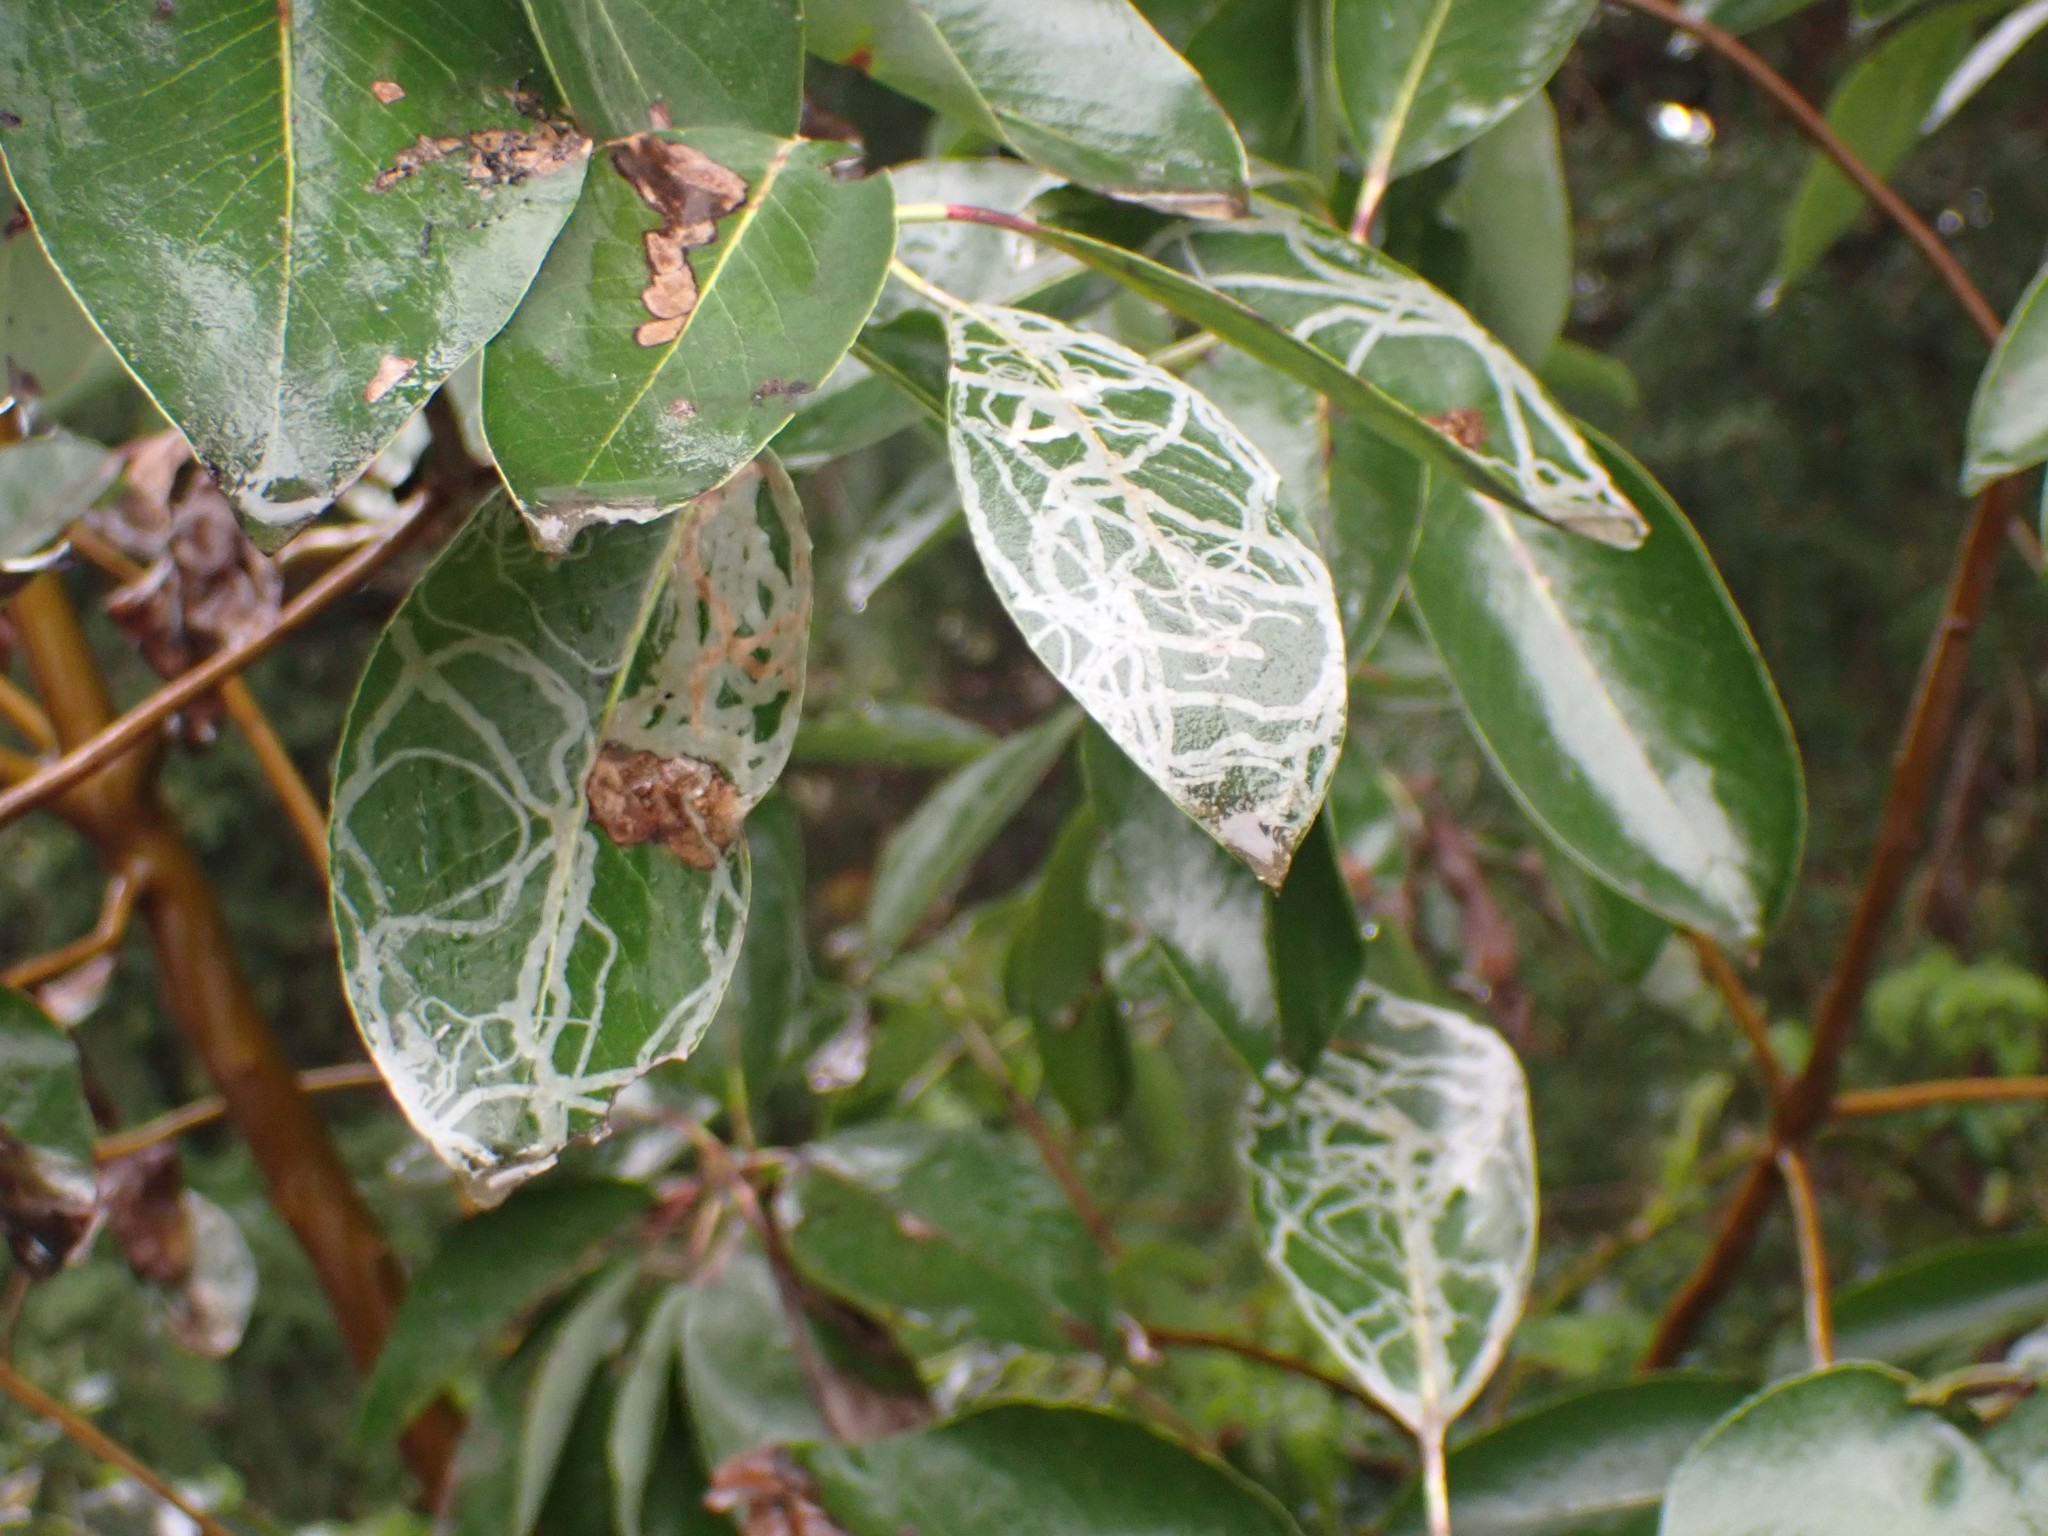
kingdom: Animalia
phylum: Arthropoda
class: Insecta
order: Lepidoptera
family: Gracillariidae
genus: Marmara
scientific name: Marmara arbutiella
